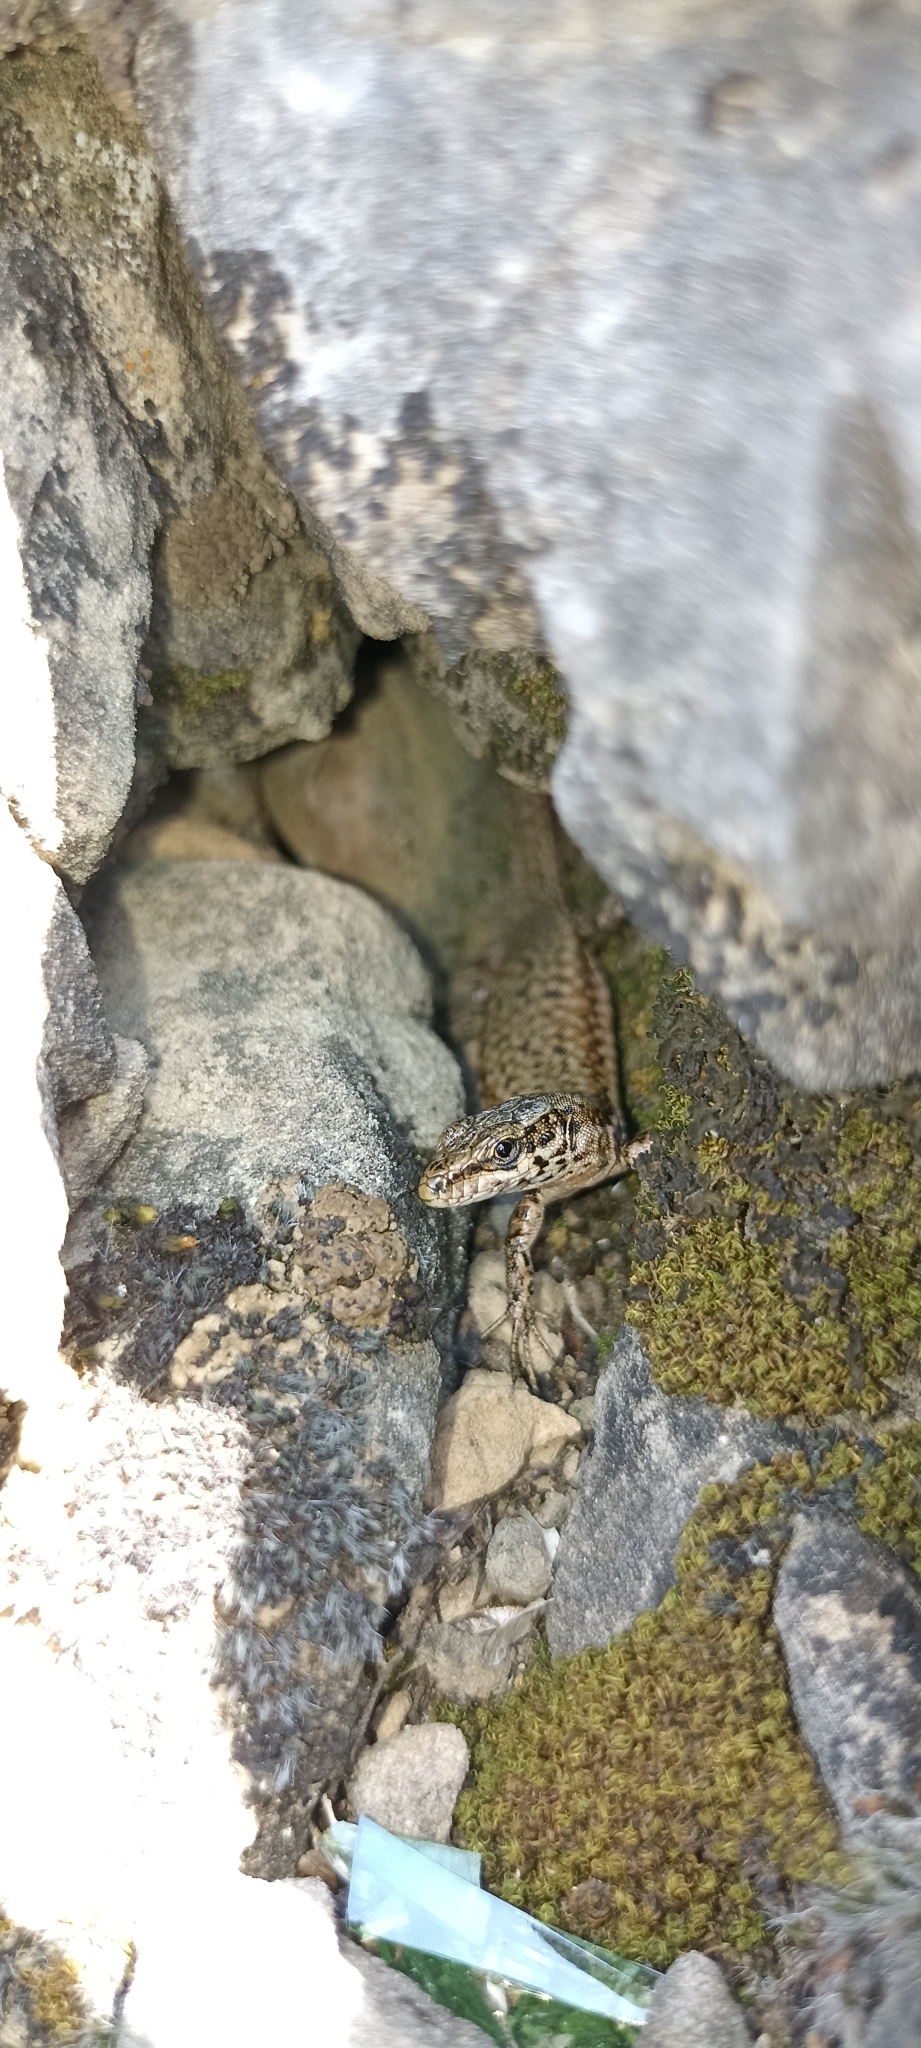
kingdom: Animalia
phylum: Chordata
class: Squamata
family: Lacertidae
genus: Podarcis
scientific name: Podarcis liolepis
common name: Catalonian wall lizard
